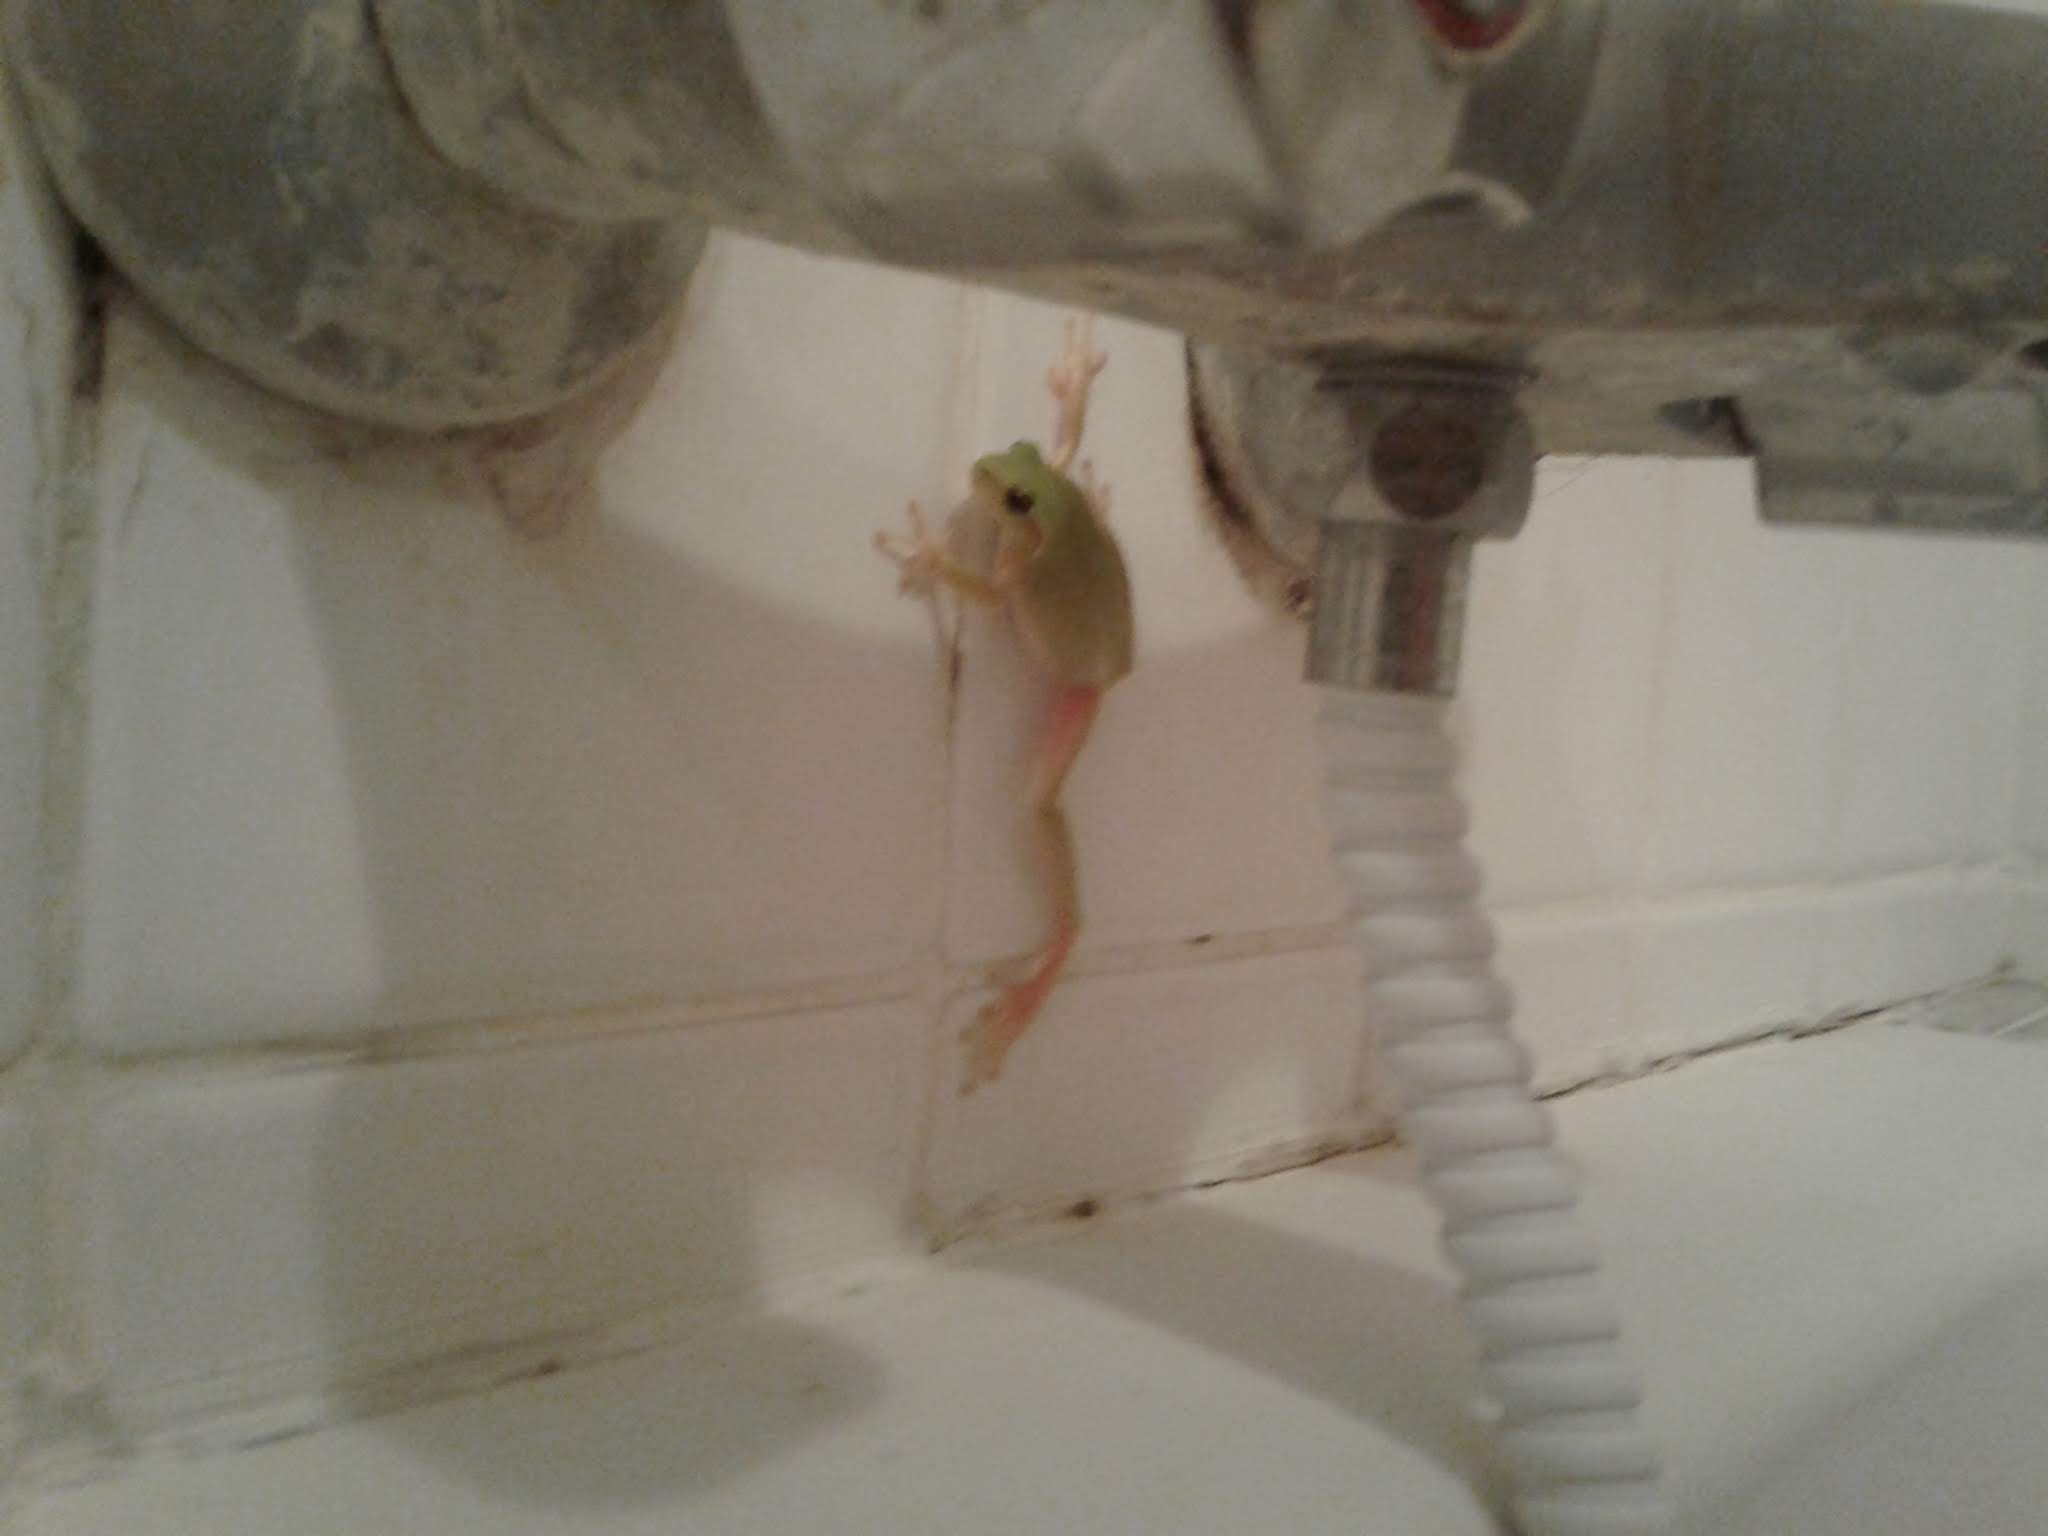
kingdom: Animalia
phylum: Chordata
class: Amphibia
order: Anura
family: Hylidae
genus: Hyla
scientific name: Hyla meridionalis
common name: Stripeless tree frog
